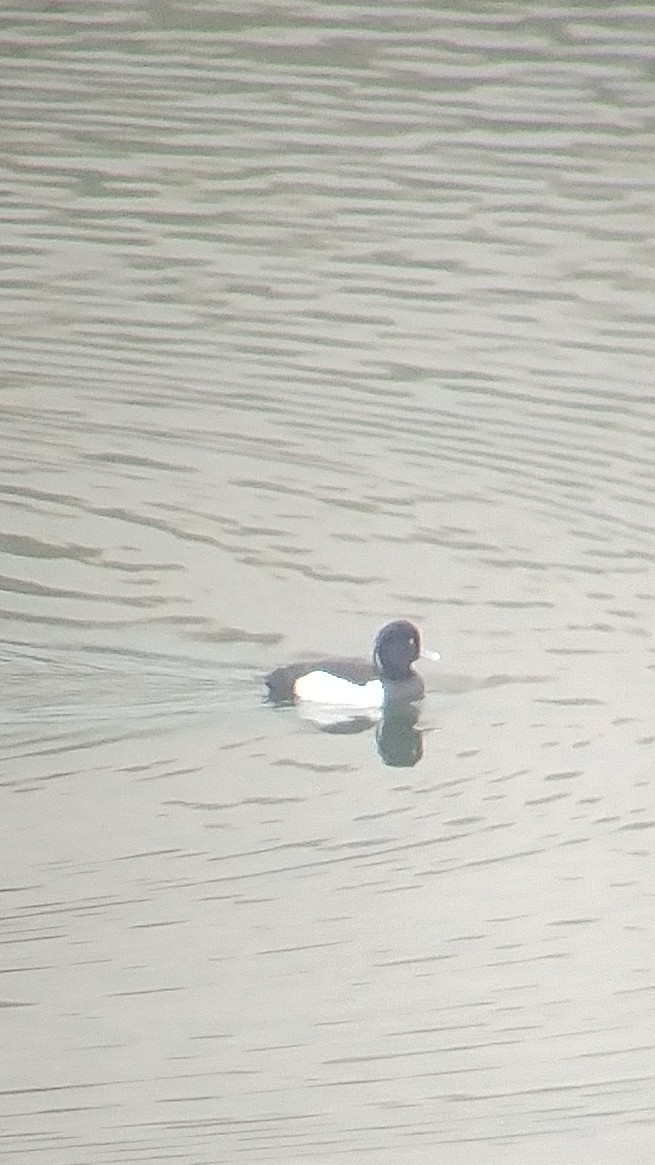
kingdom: Animalia
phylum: Chordata
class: Aves
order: Anseriformes
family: Anatidae
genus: Aythya
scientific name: Aythya fuligula
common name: Tufted duck
